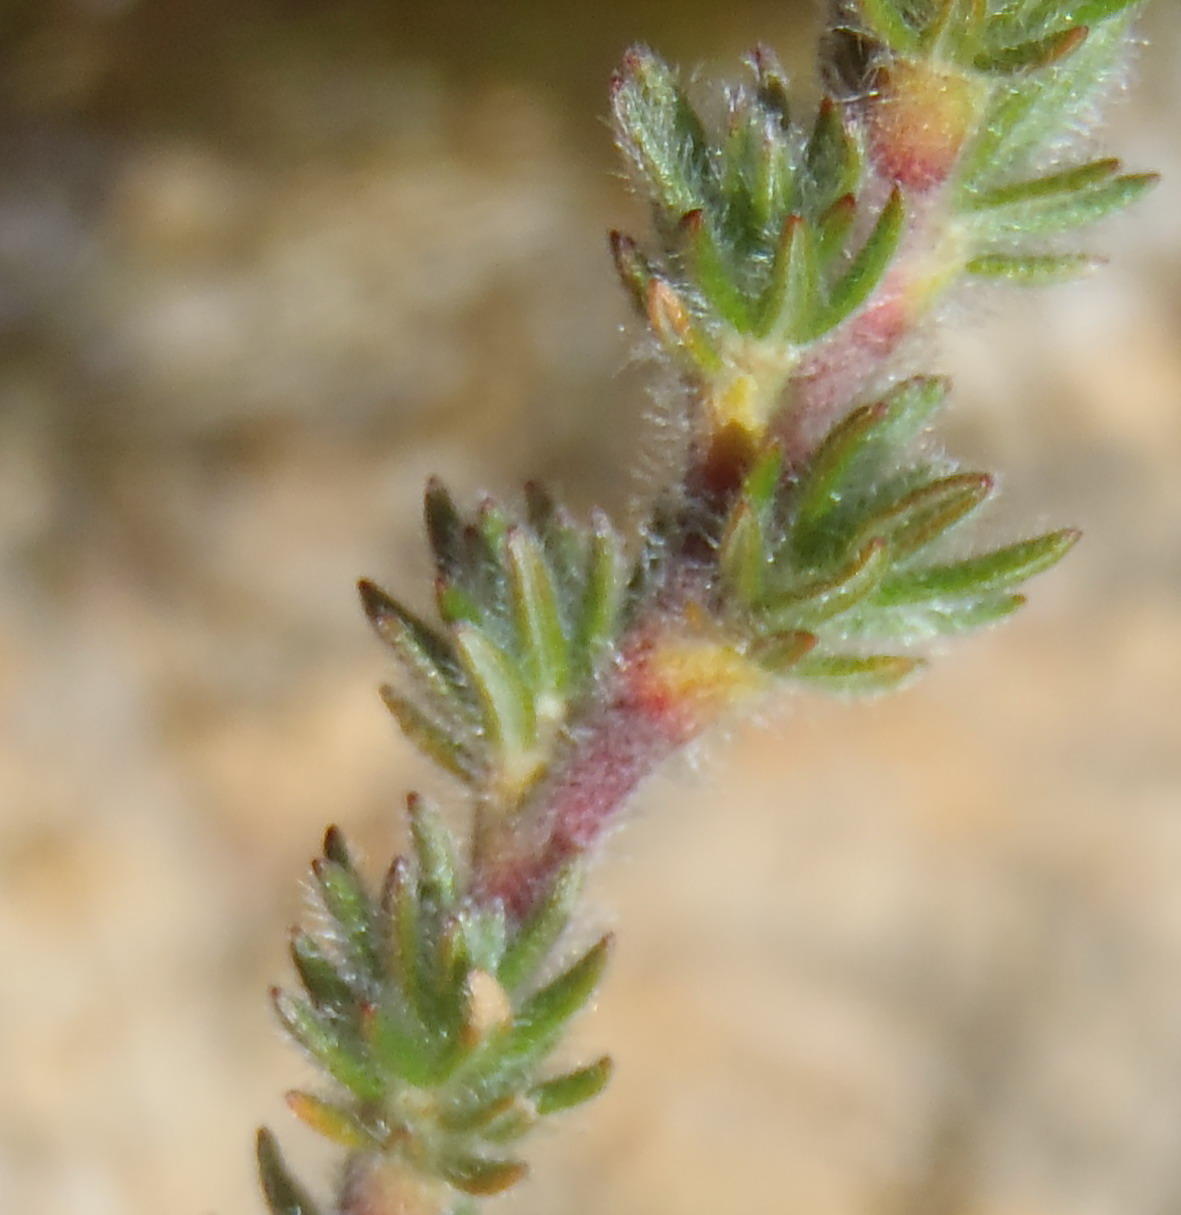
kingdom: Plantae
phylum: Tracheophyta
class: Magnoliopsida
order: Rosales
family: Rosaceae
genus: Cliffortia
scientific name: Cliffortia eriocephalina
